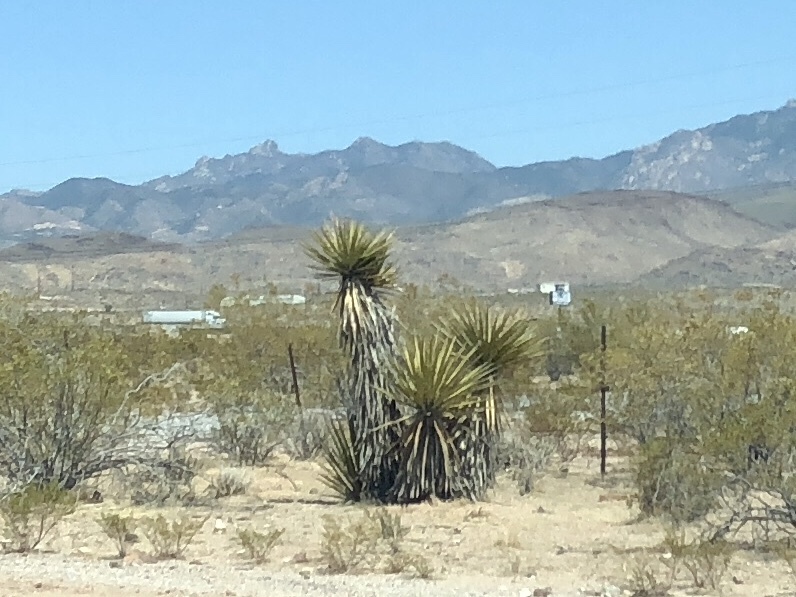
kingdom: Plantae
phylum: Tracheophyta
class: Liliopsida
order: Asparagales
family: Asparagaceae
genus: Yucca
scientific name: Yucca schidigera
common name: Mojave yucca
